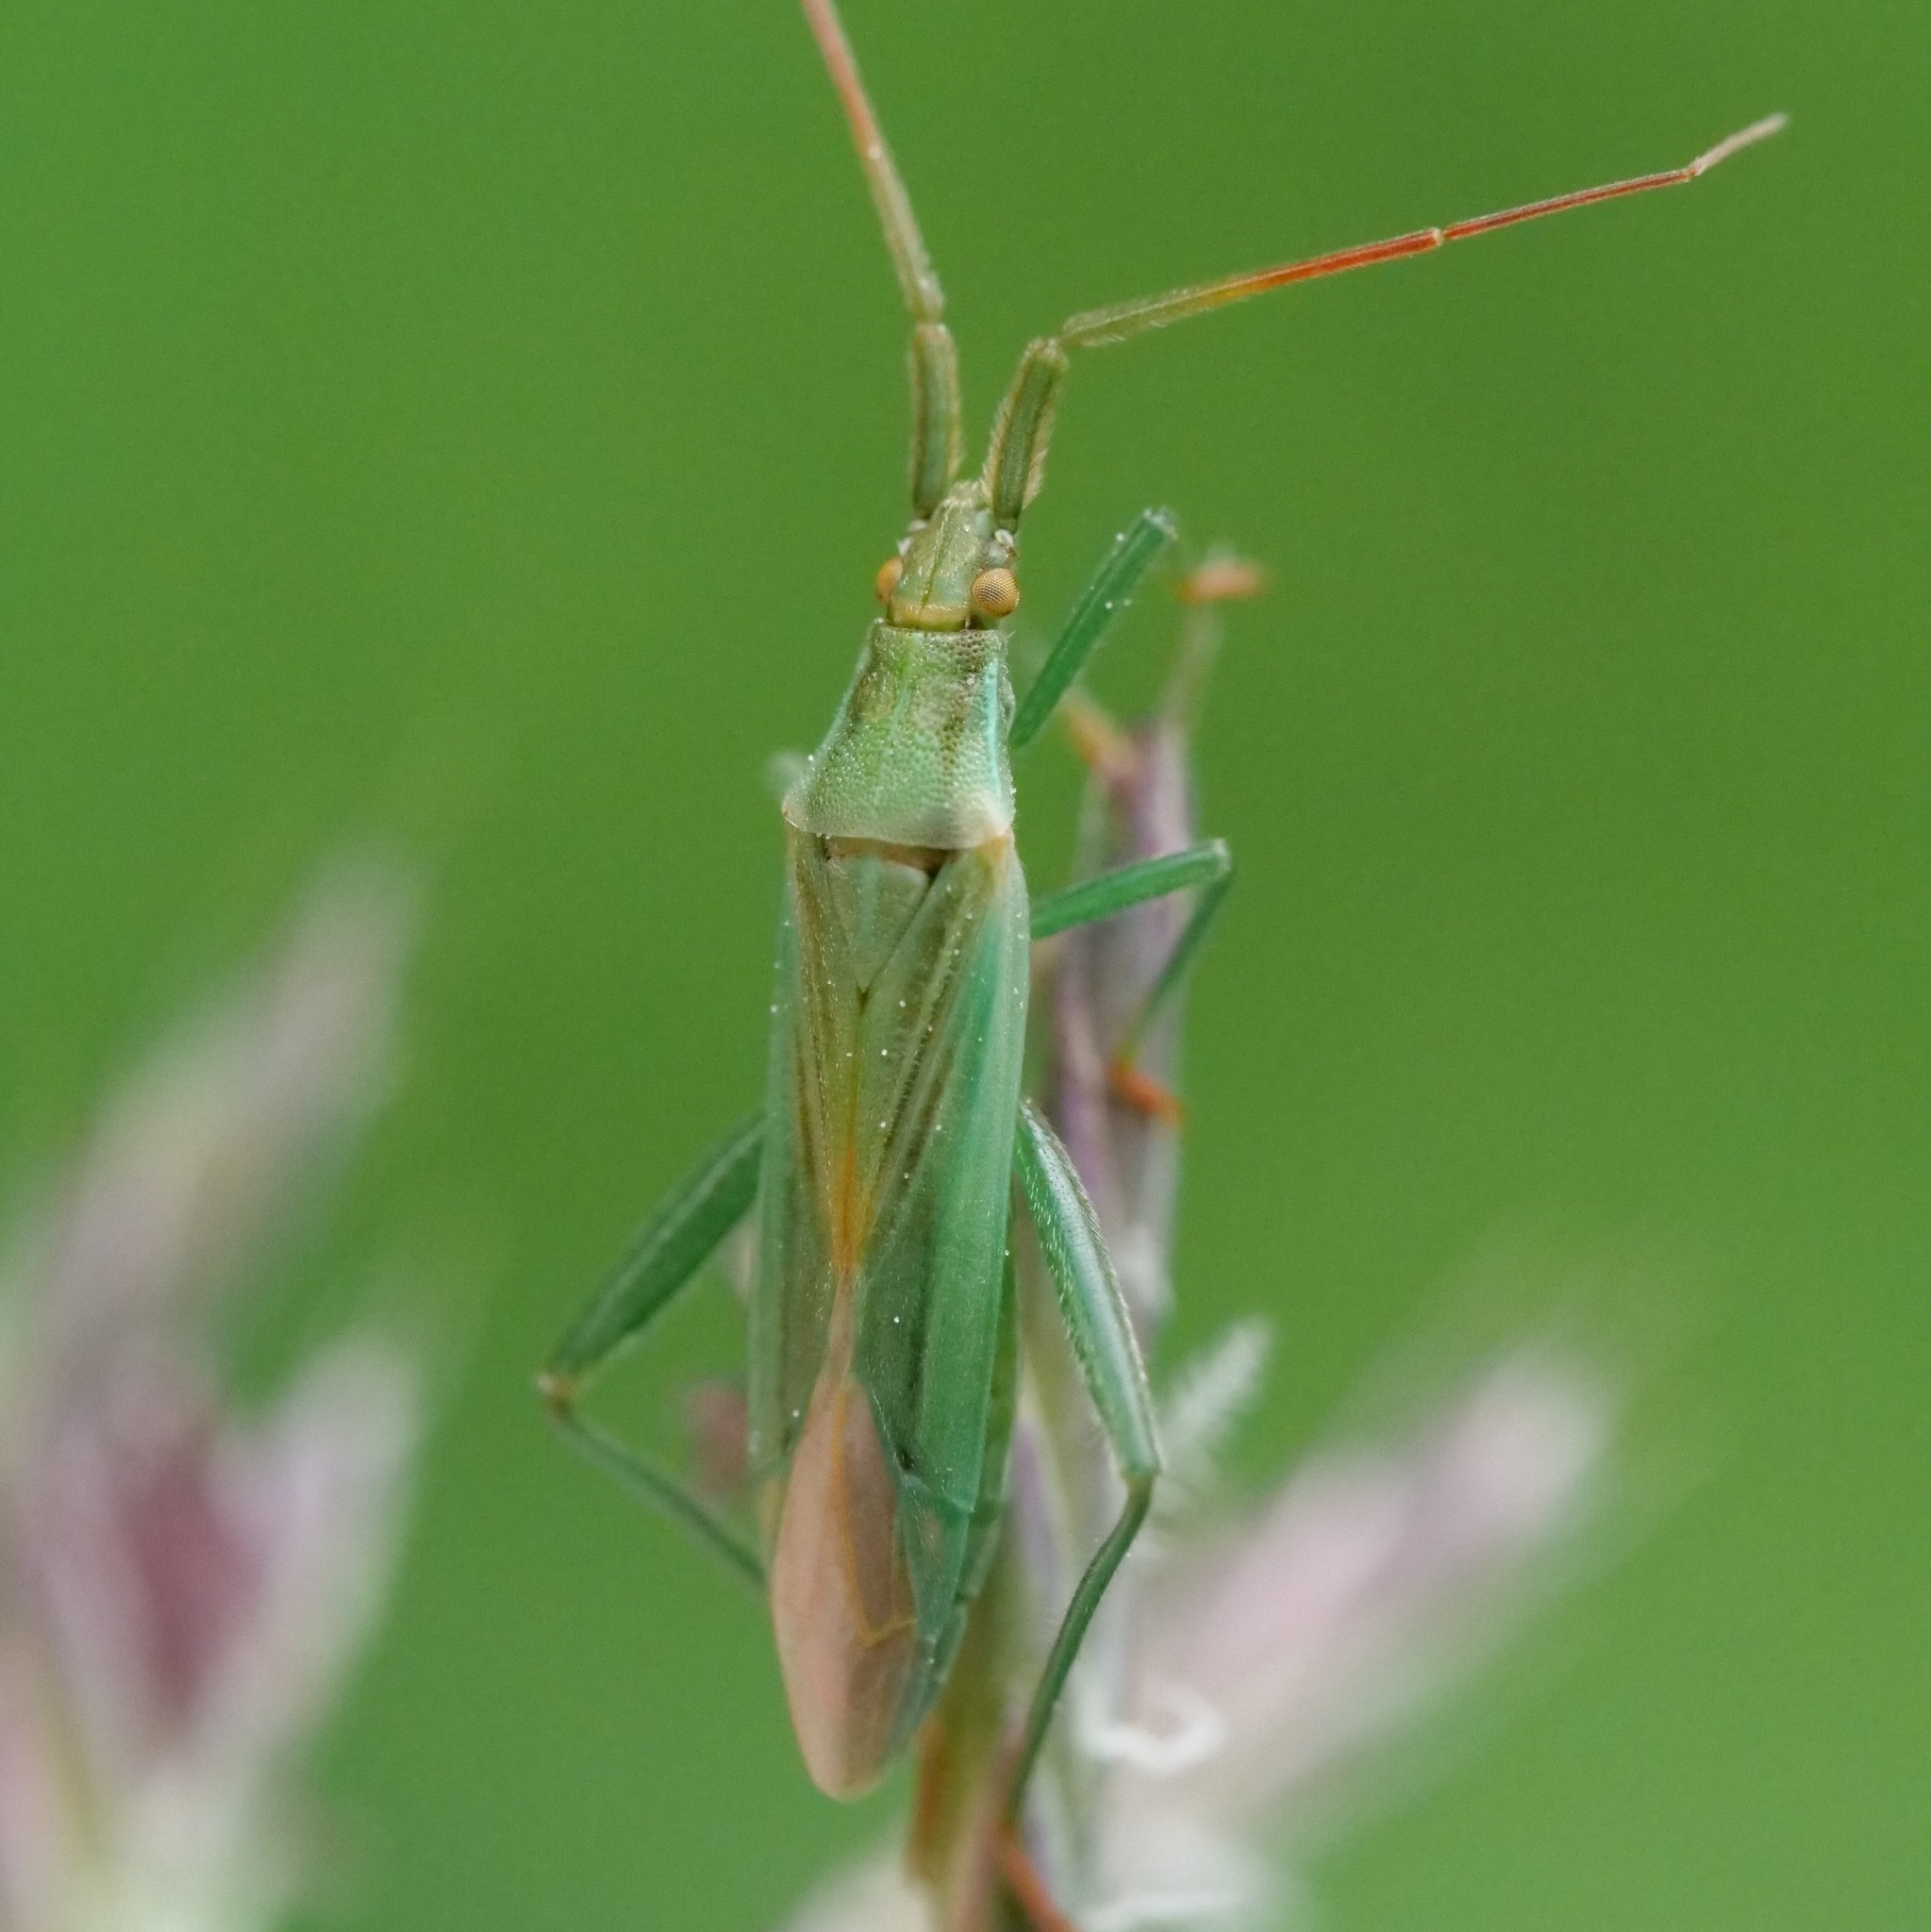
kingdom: Animalia
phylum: Arthropoda
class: Insecta
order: Hemiptera
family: Miridae
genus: Stenodema
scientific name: Stenodema laevigata
